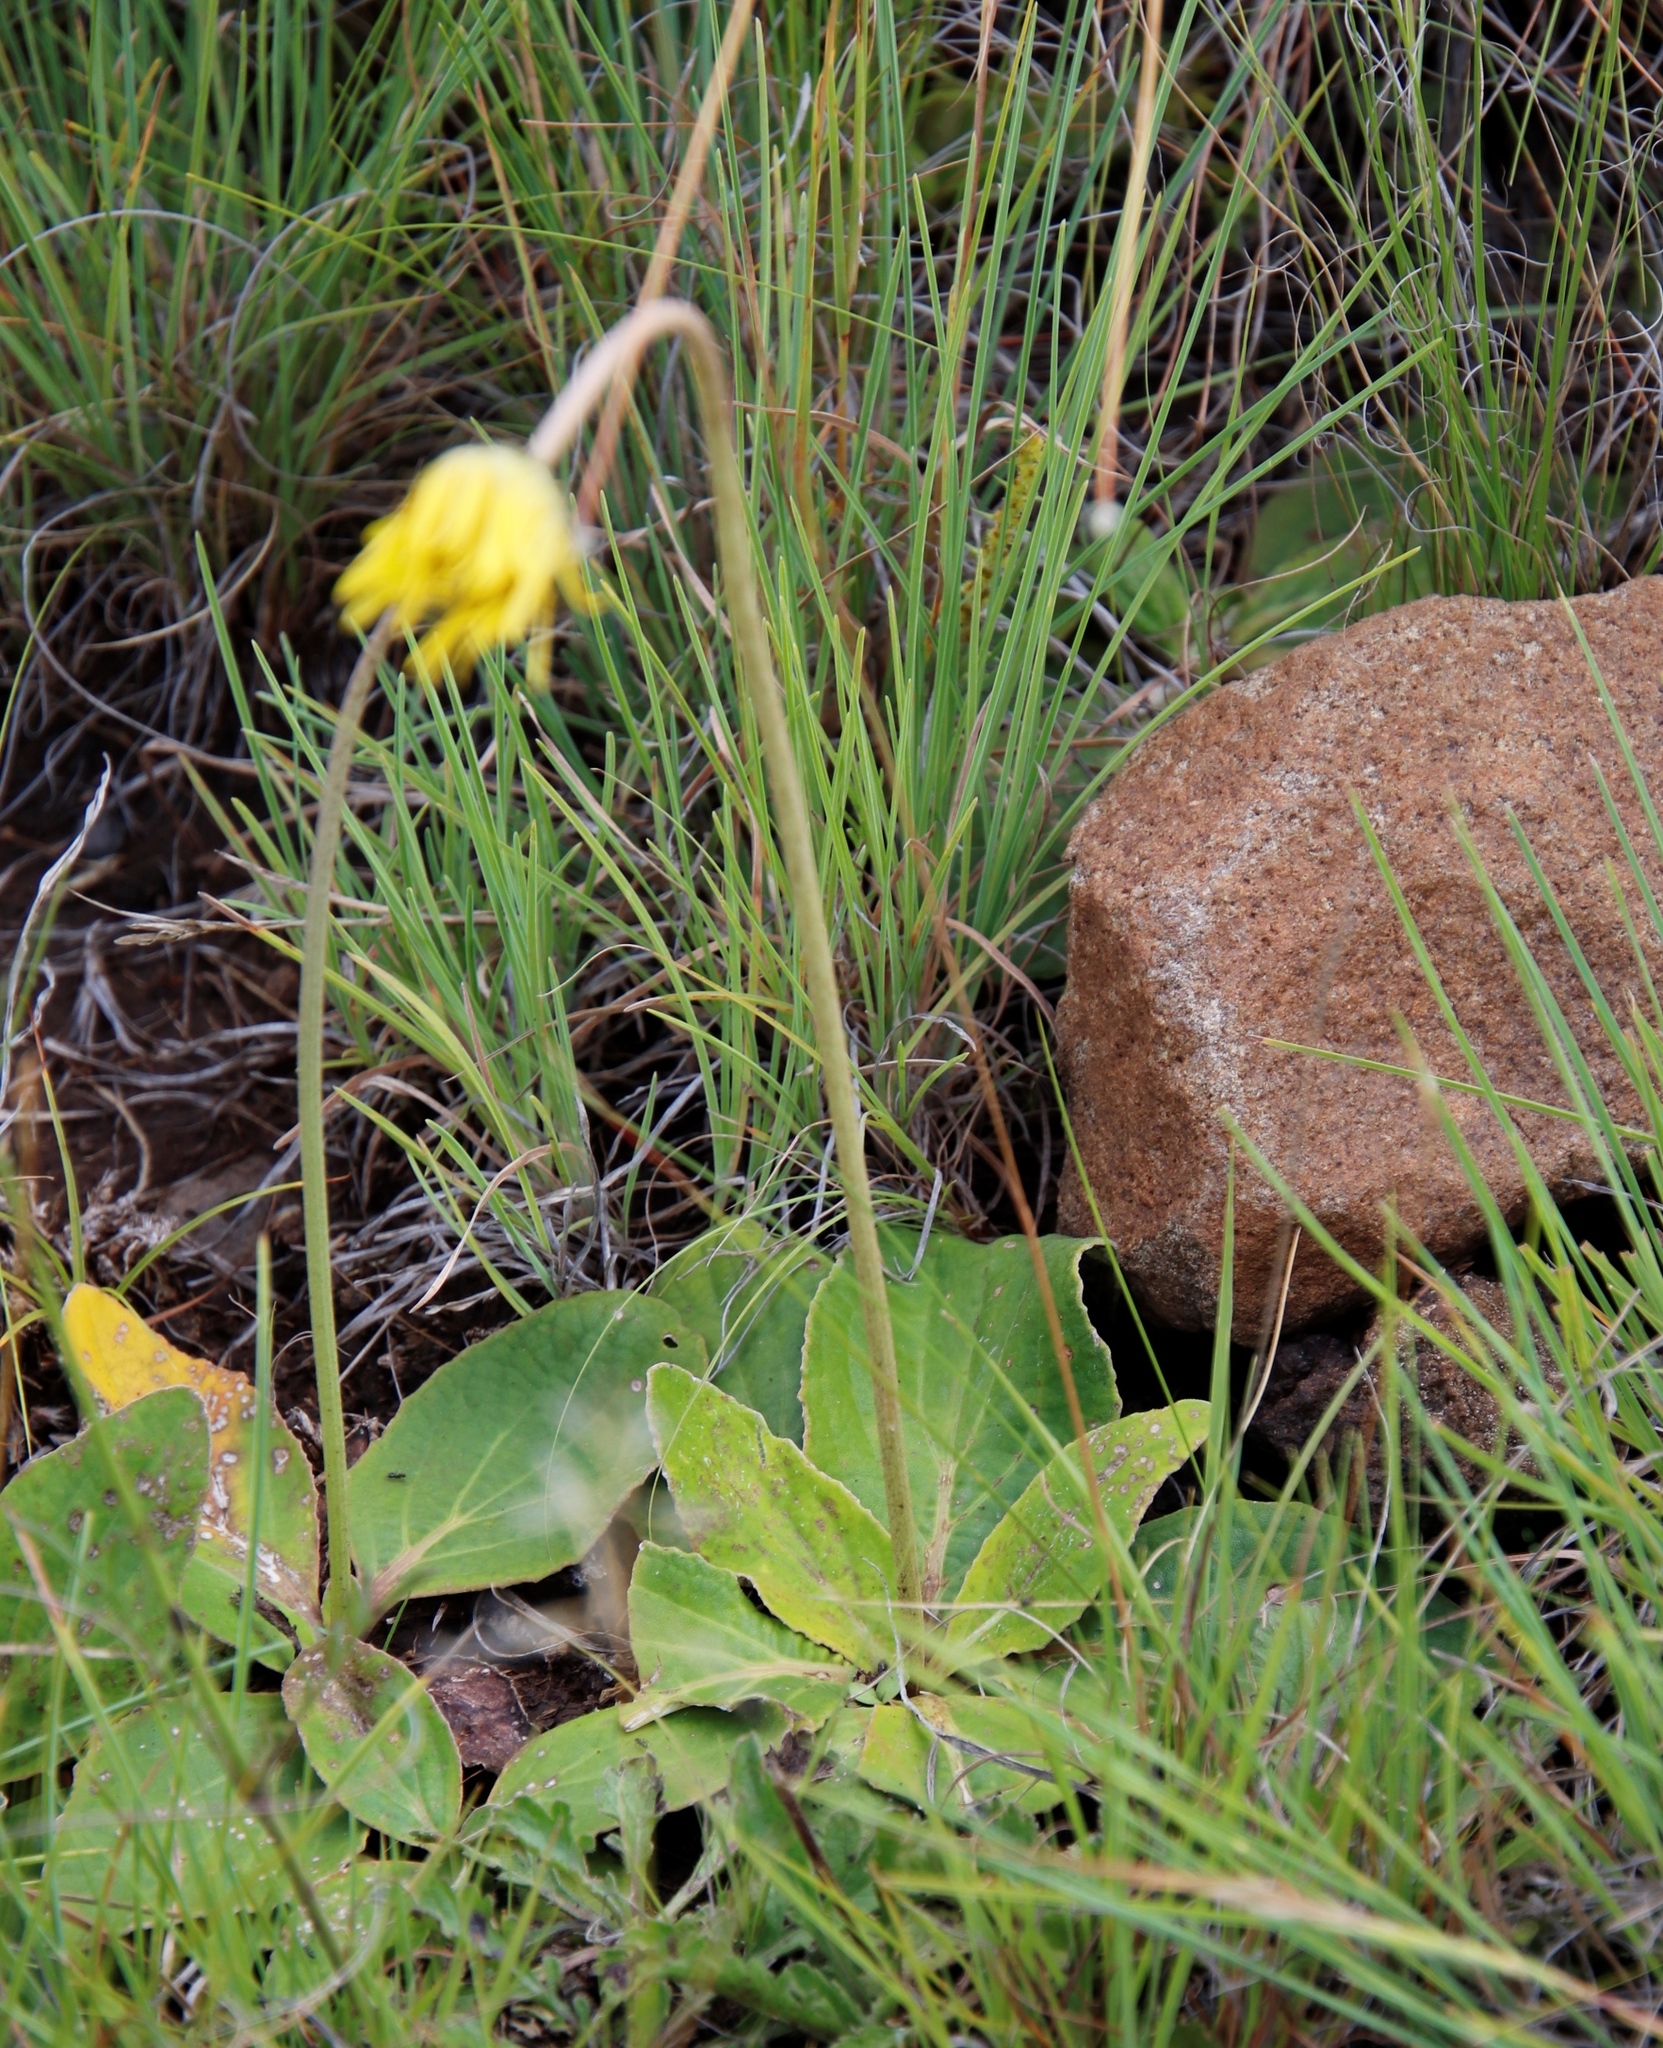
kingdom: Plantae
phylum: Tracheophyta
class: Magnoliopsida
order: Asterales
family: Asteraceae
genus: Haplocarpha
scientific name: Haplocarpha scaposa
